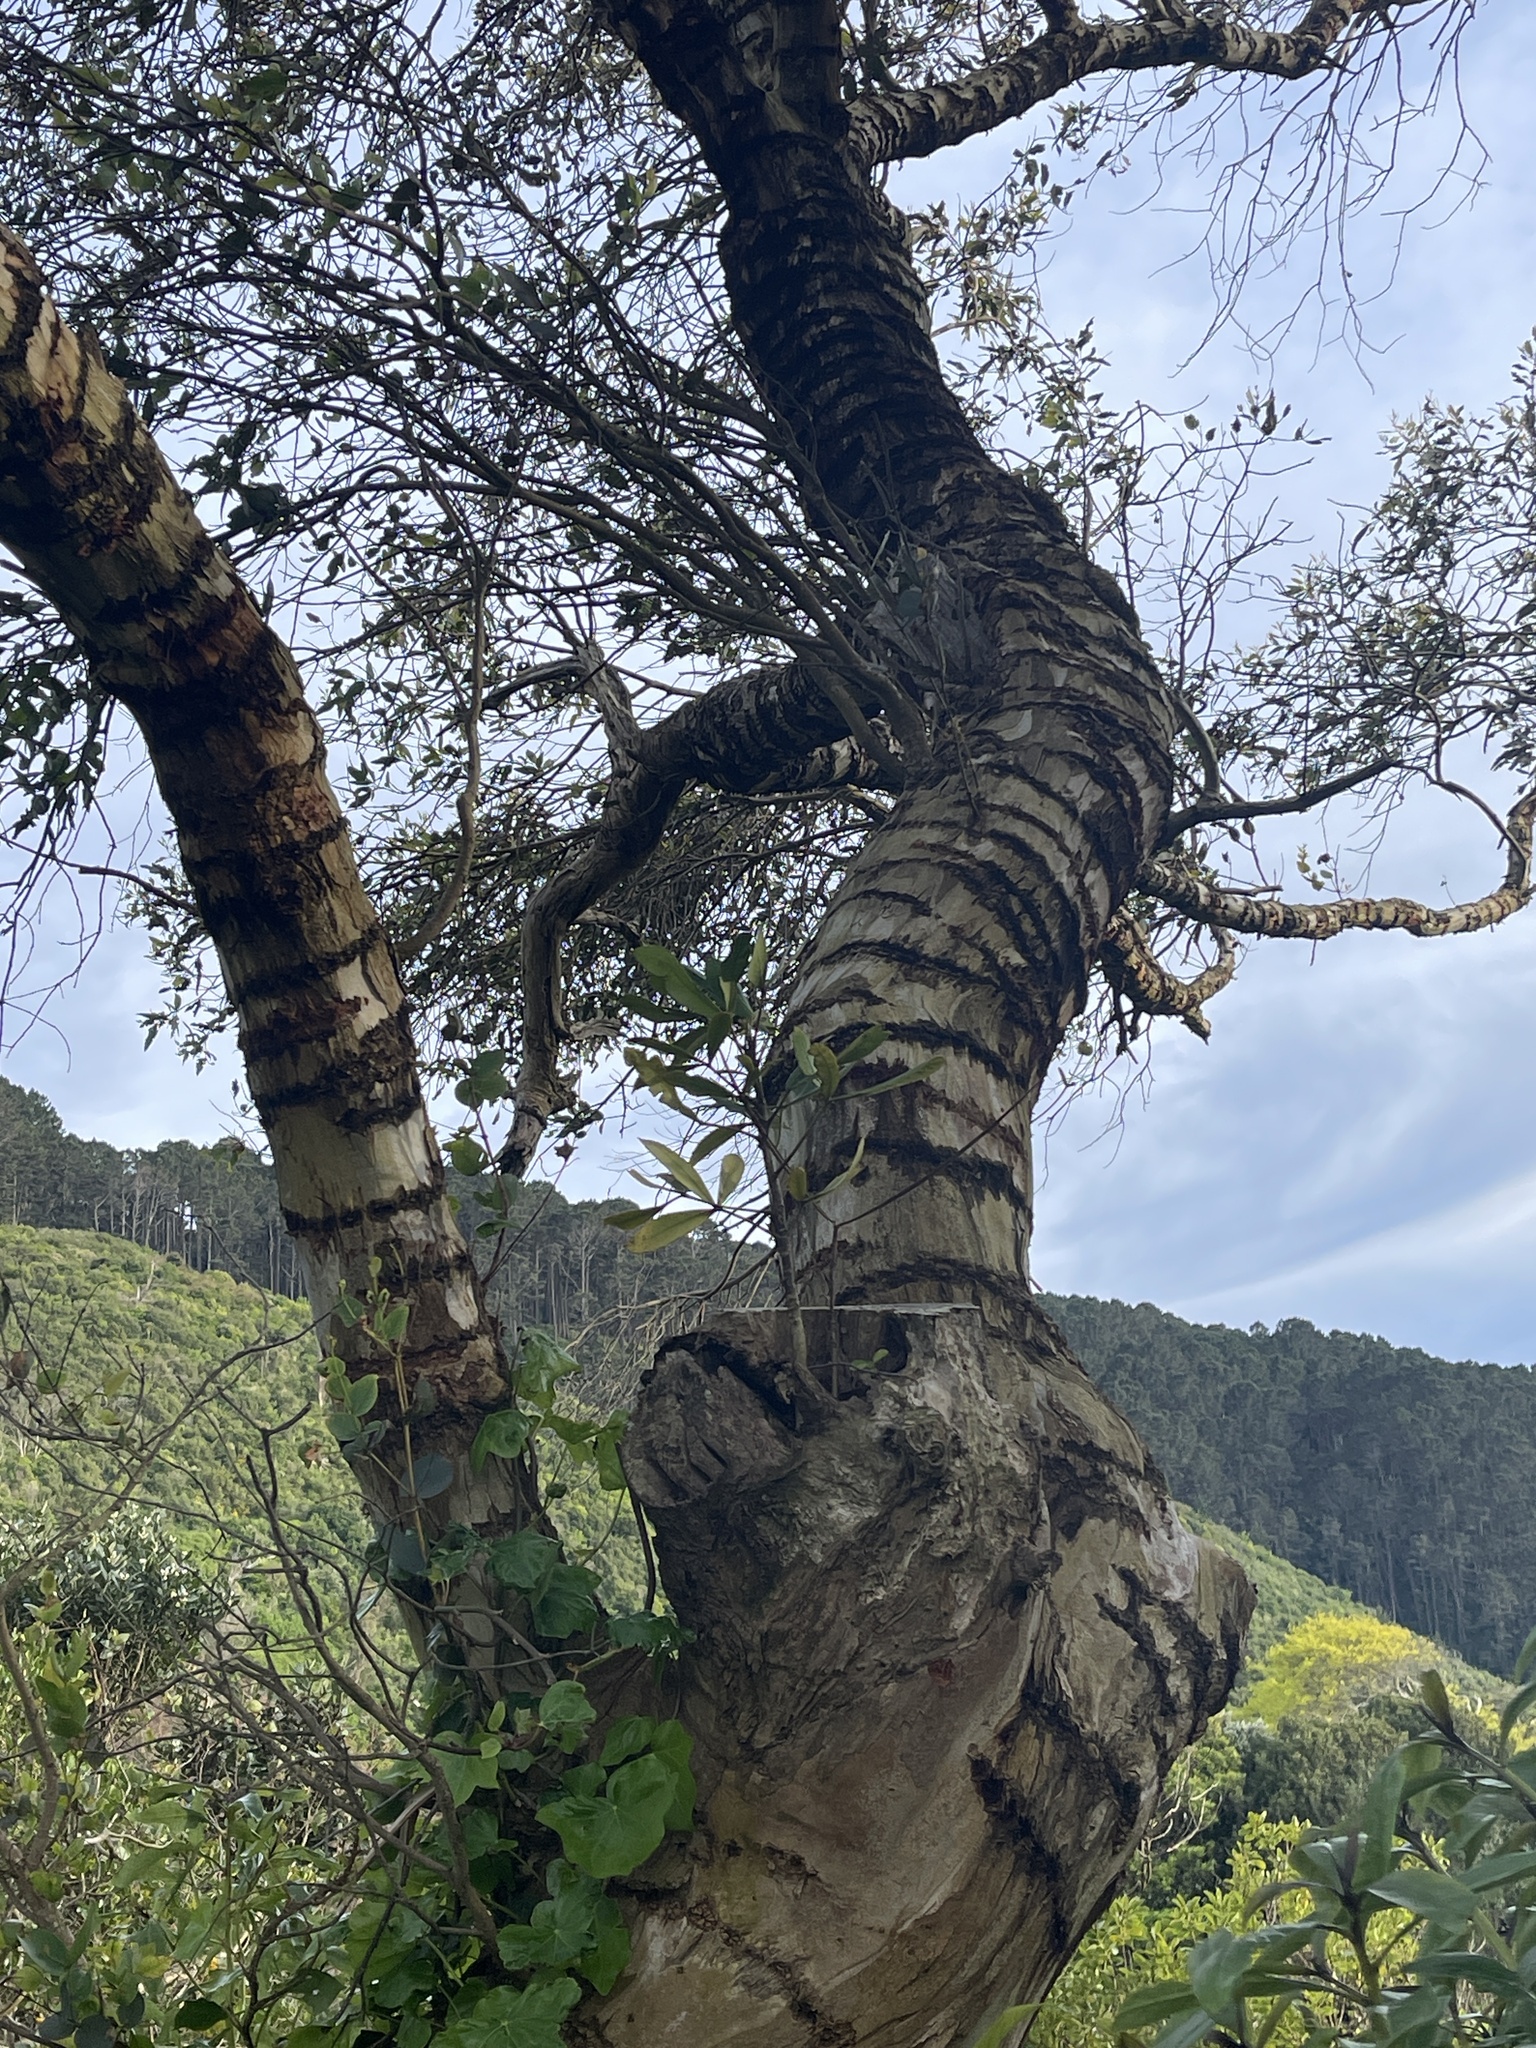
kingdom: Animalia
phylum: Chordata
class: Aves
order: Psittaciformes
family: Psittacidae
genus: Nestor
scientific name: Nestor meridionalis
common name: New zealand kaka
